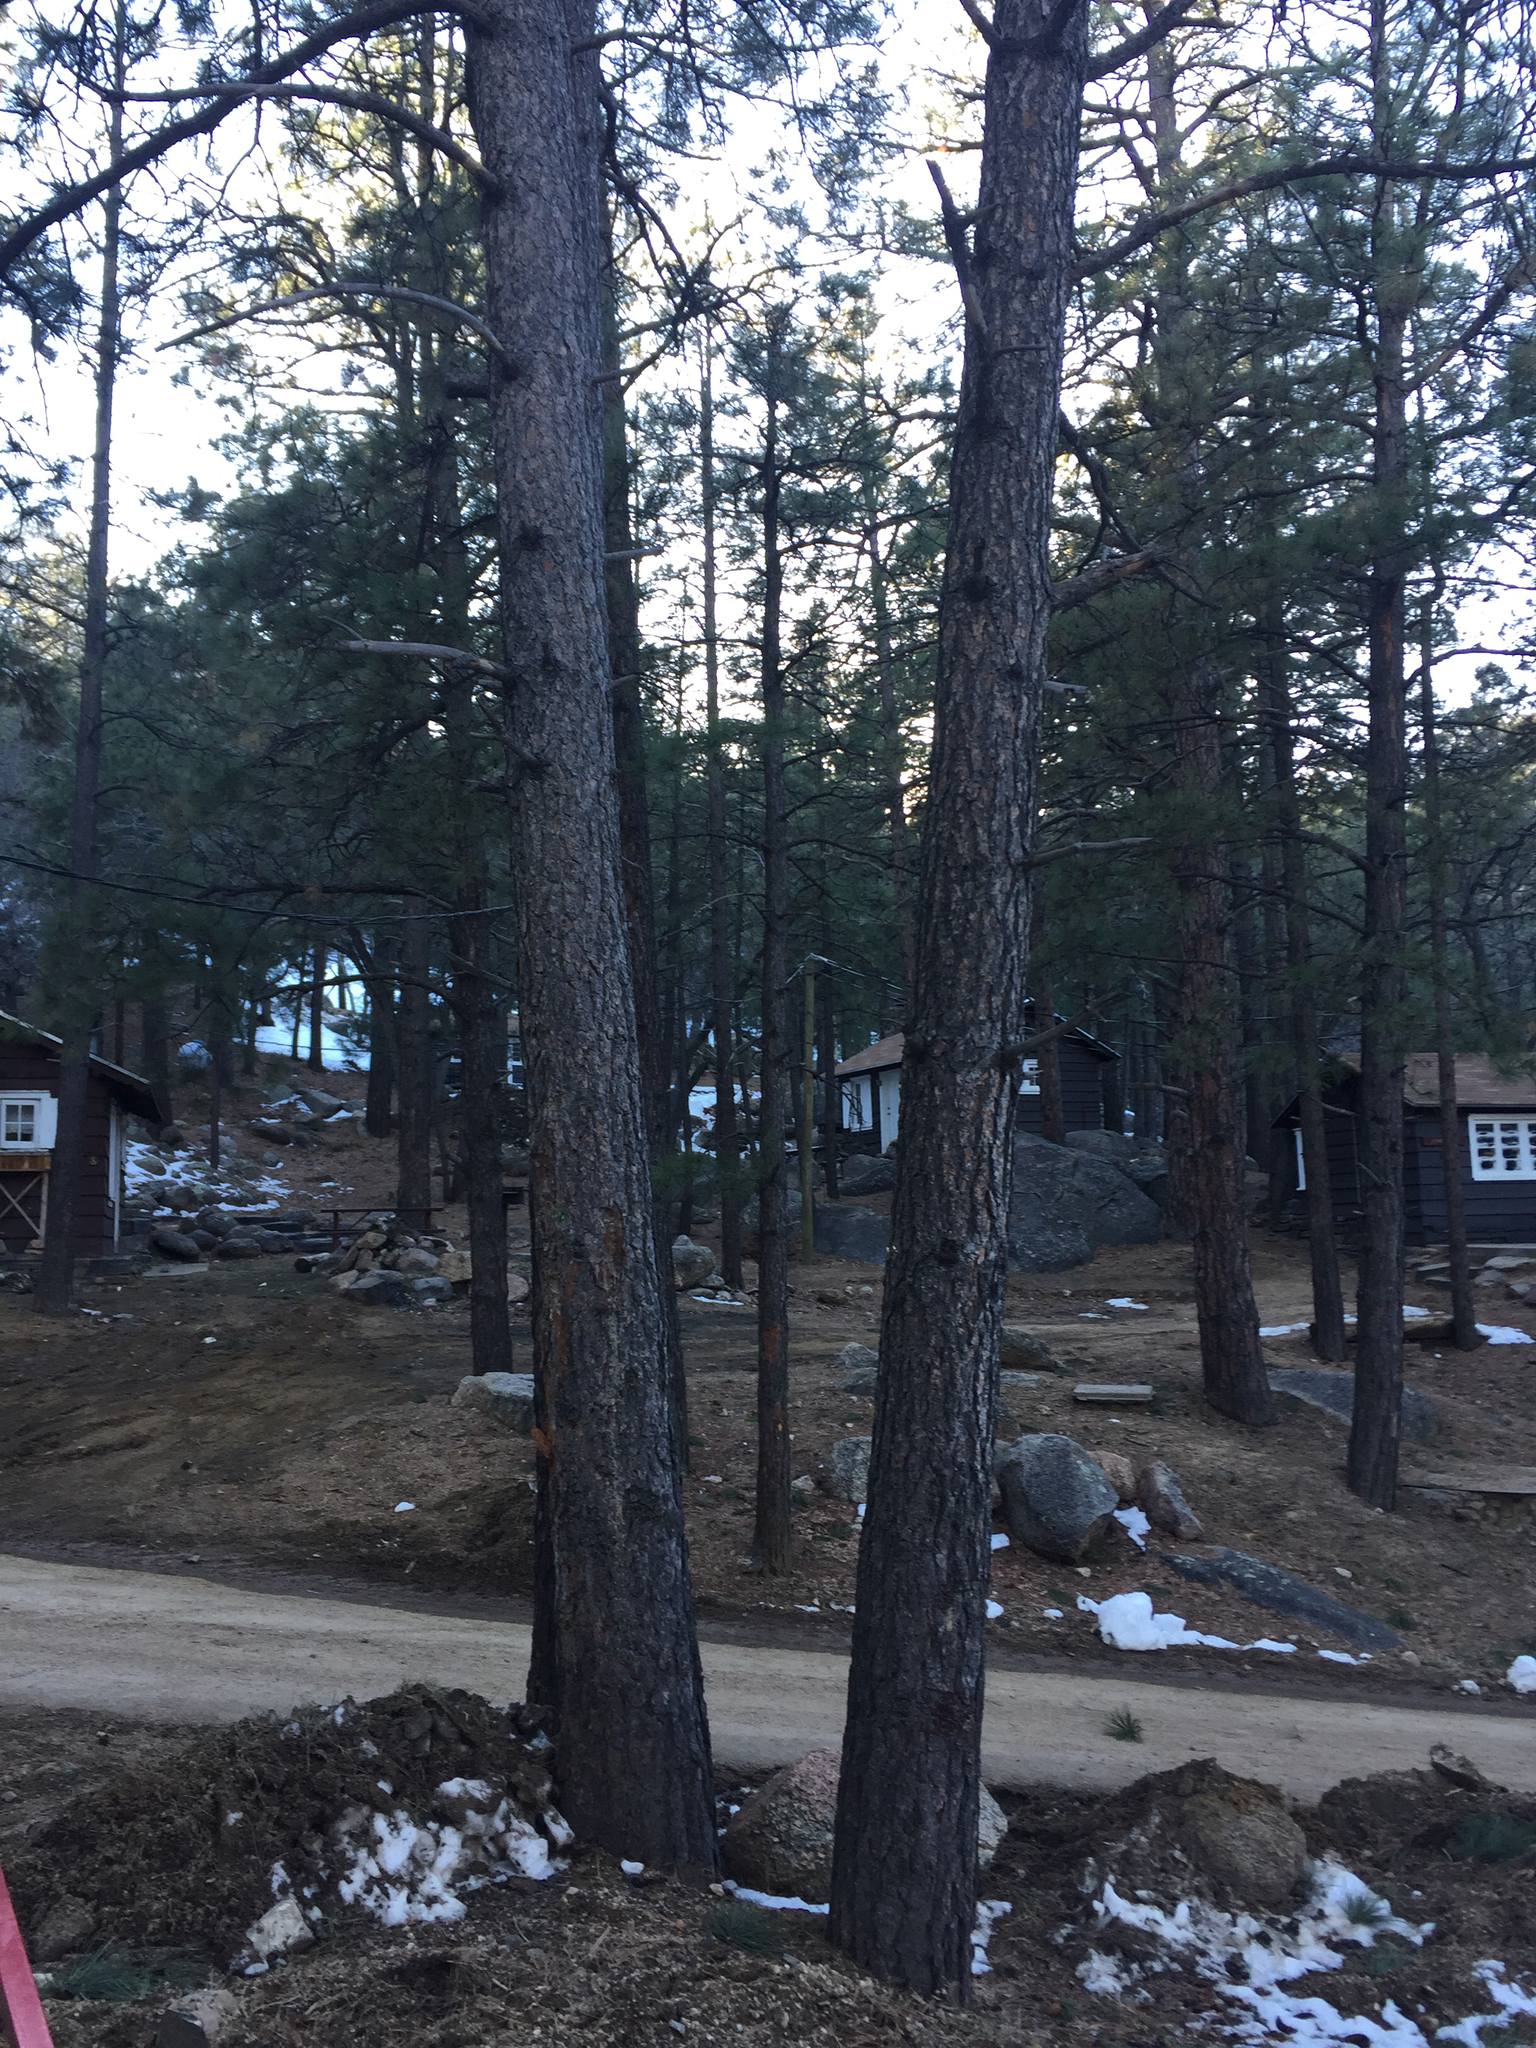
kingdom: Plantae
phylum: Tracheophyta
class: Pinopsida
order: Pinales
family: Pinaceae
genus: Pinus
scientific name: Pinus ponderosa
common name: Western yellow-pine
